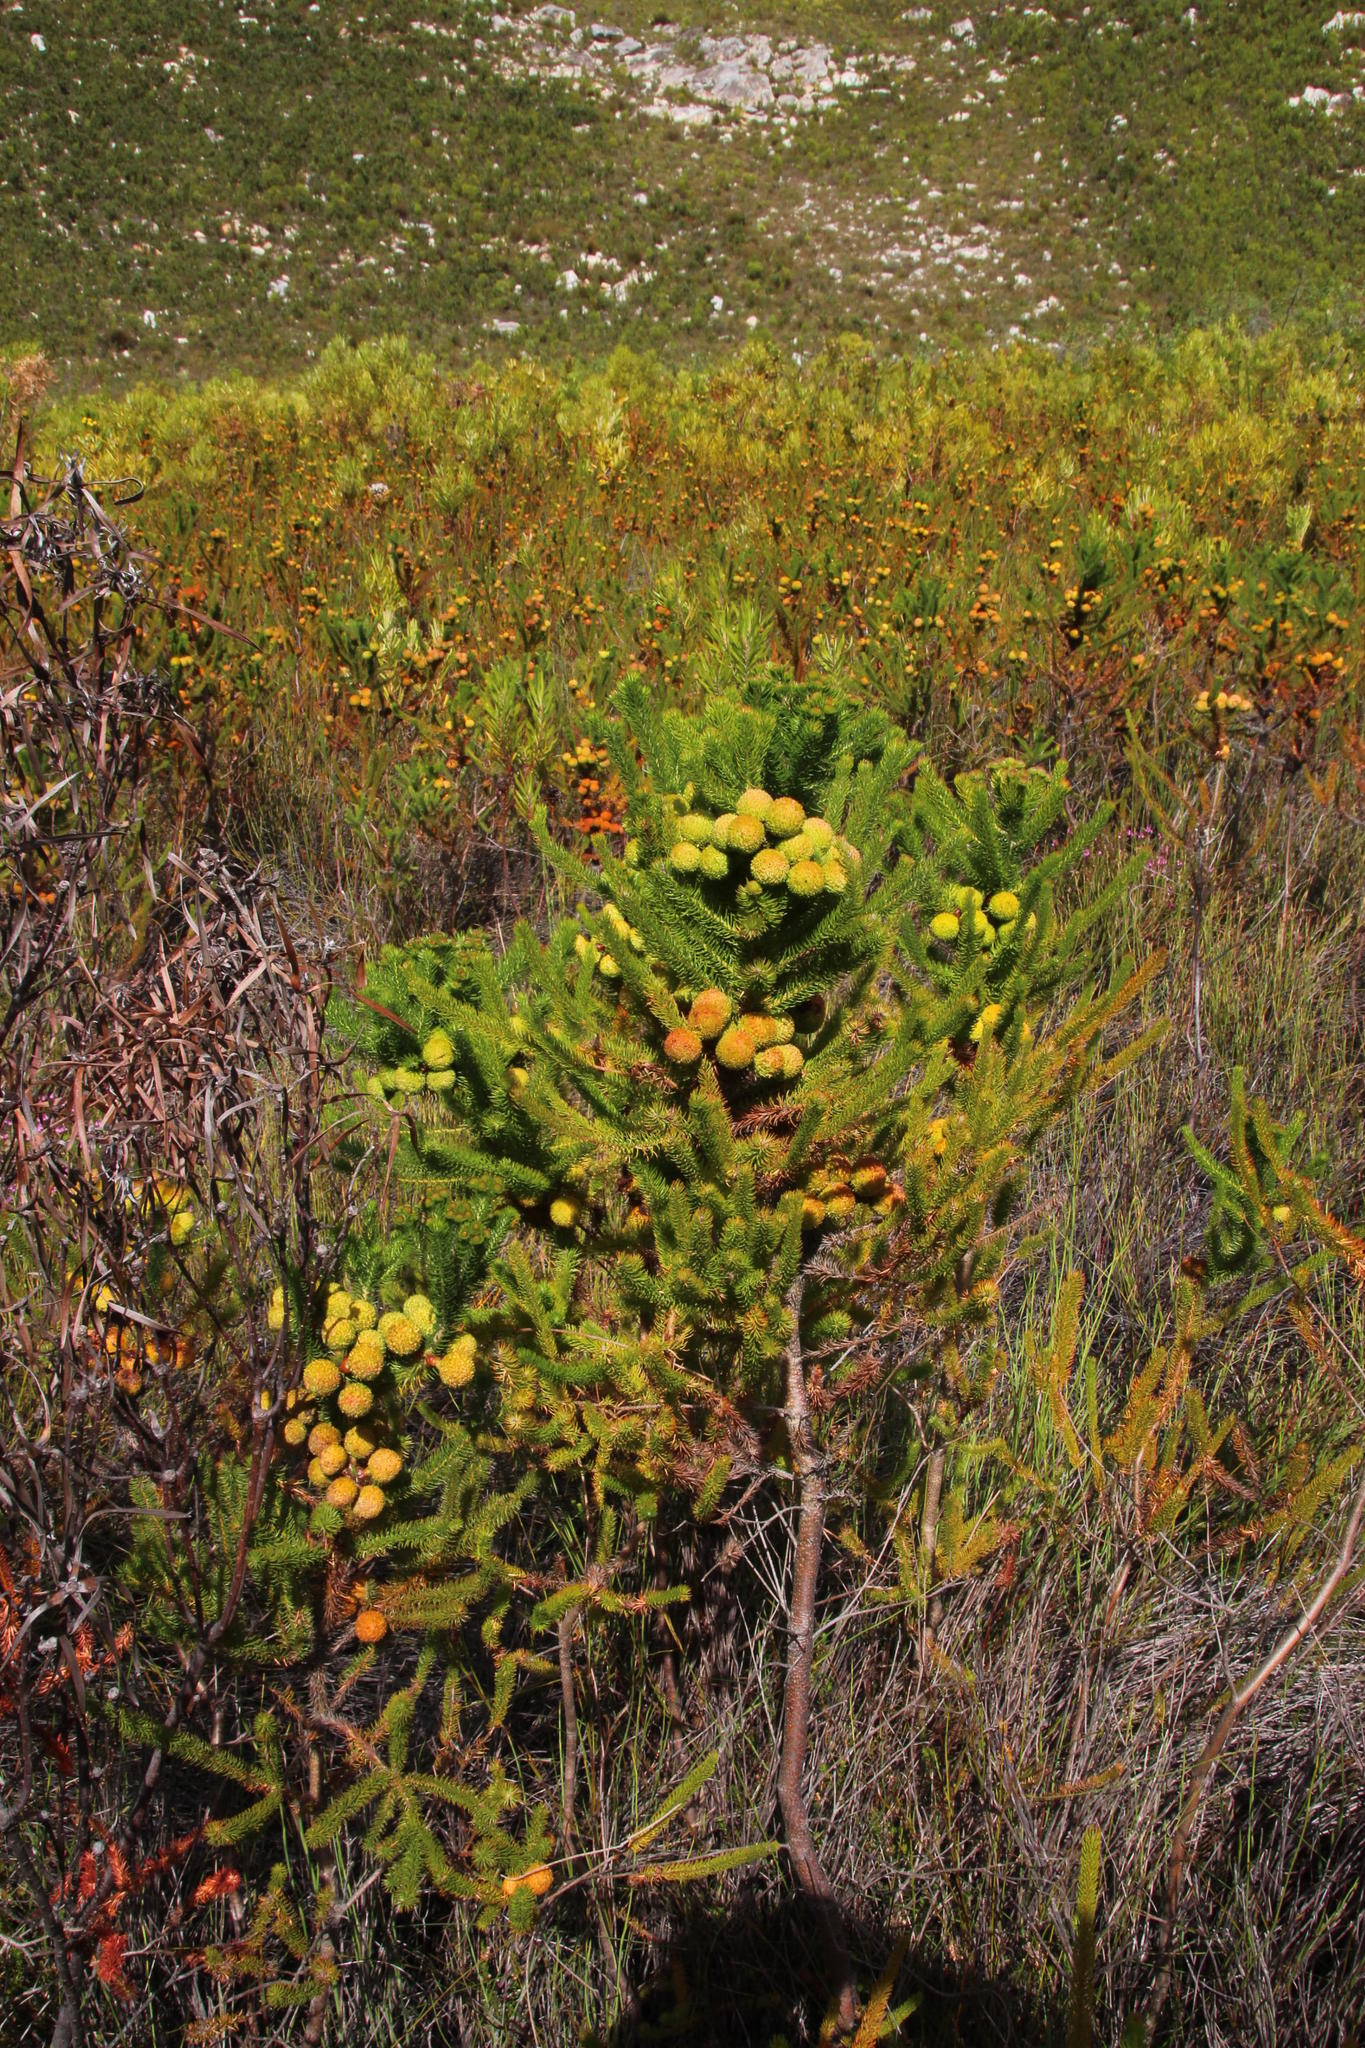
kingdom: Plantae
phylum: Tracheophyta
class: Magnoliopsida
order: Bruniales
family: Bruniaceae
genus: Berzelia
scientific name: Berzelia galpinii
